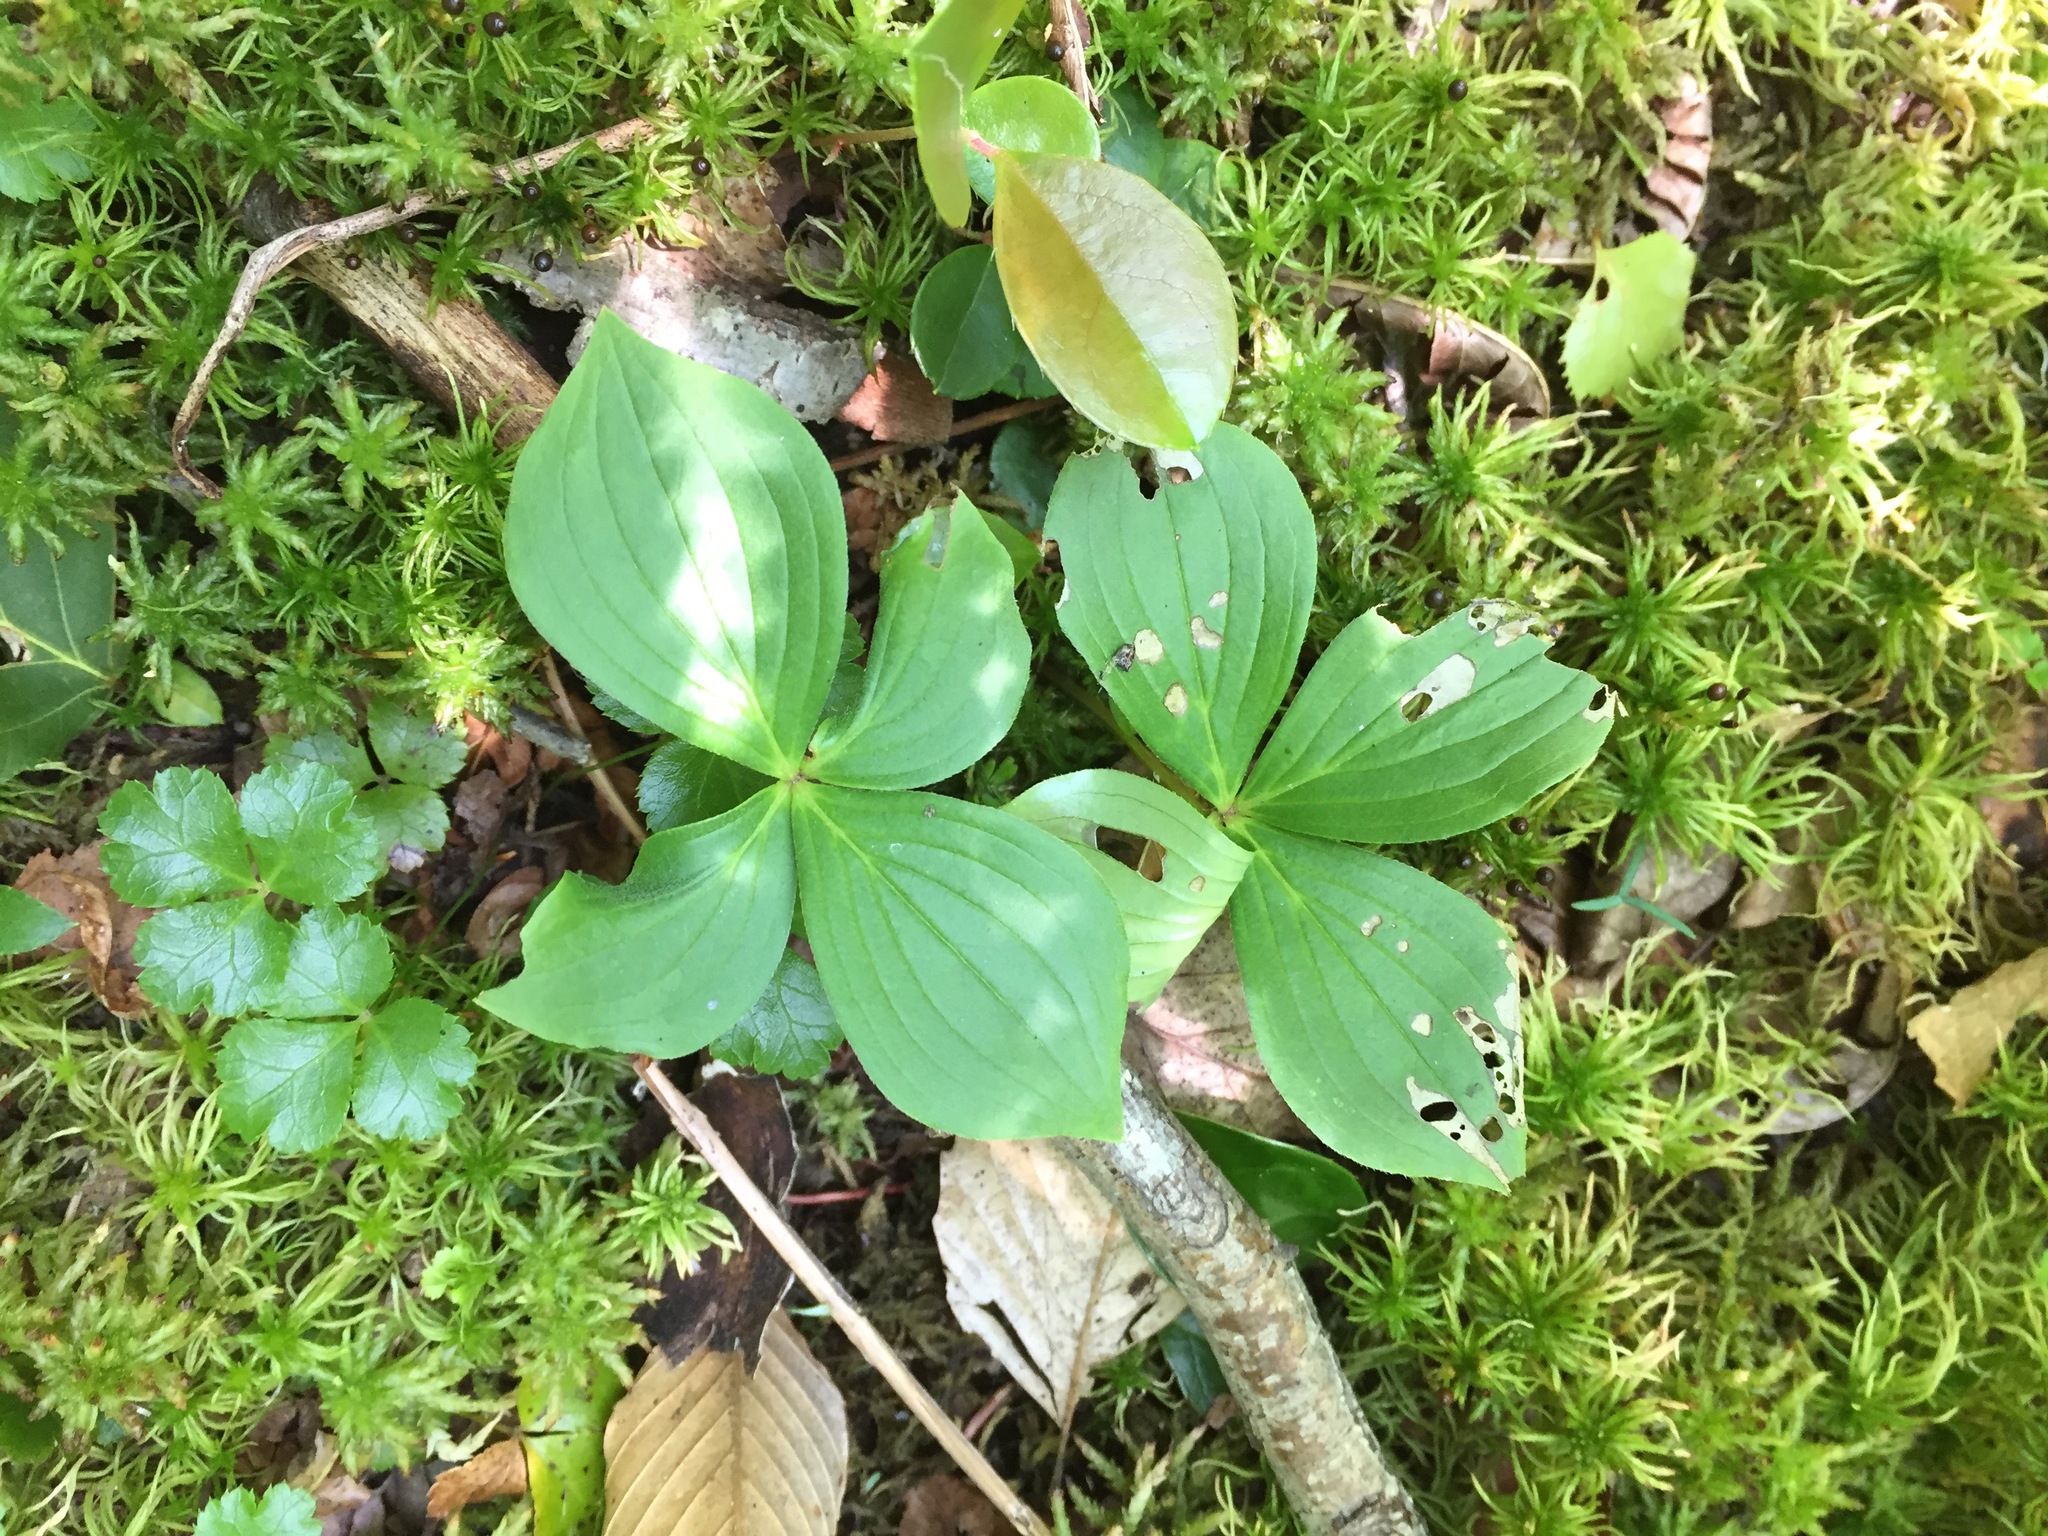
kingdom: Plantae
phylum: Tracheophyta
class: Magnoliopsida
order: Cornales
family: Cornaceae
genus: Cornus
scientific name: Cornus canadensis
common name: Creeping dogwood
